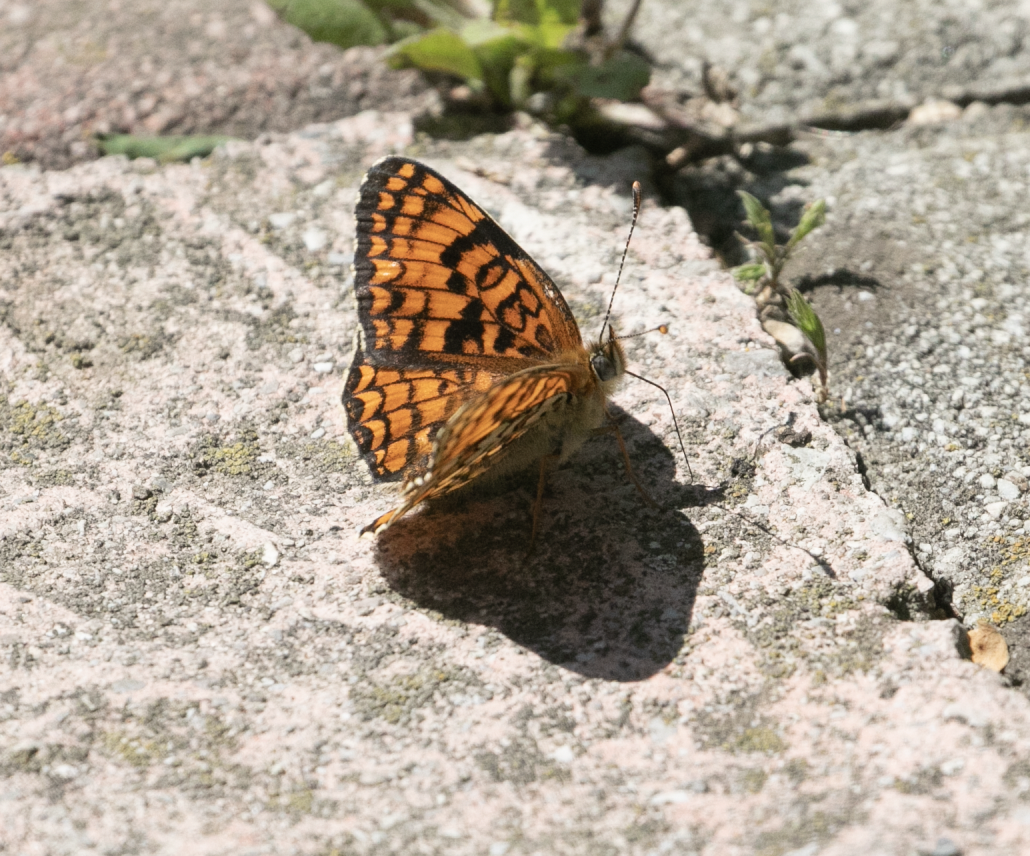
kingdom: Animalia
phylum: Arthropoda
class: Insecta
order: Lepidoptera
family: Nymphalidae
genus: Melitaea
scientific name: Melitaea phoebe
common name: Knapweed fritillary
